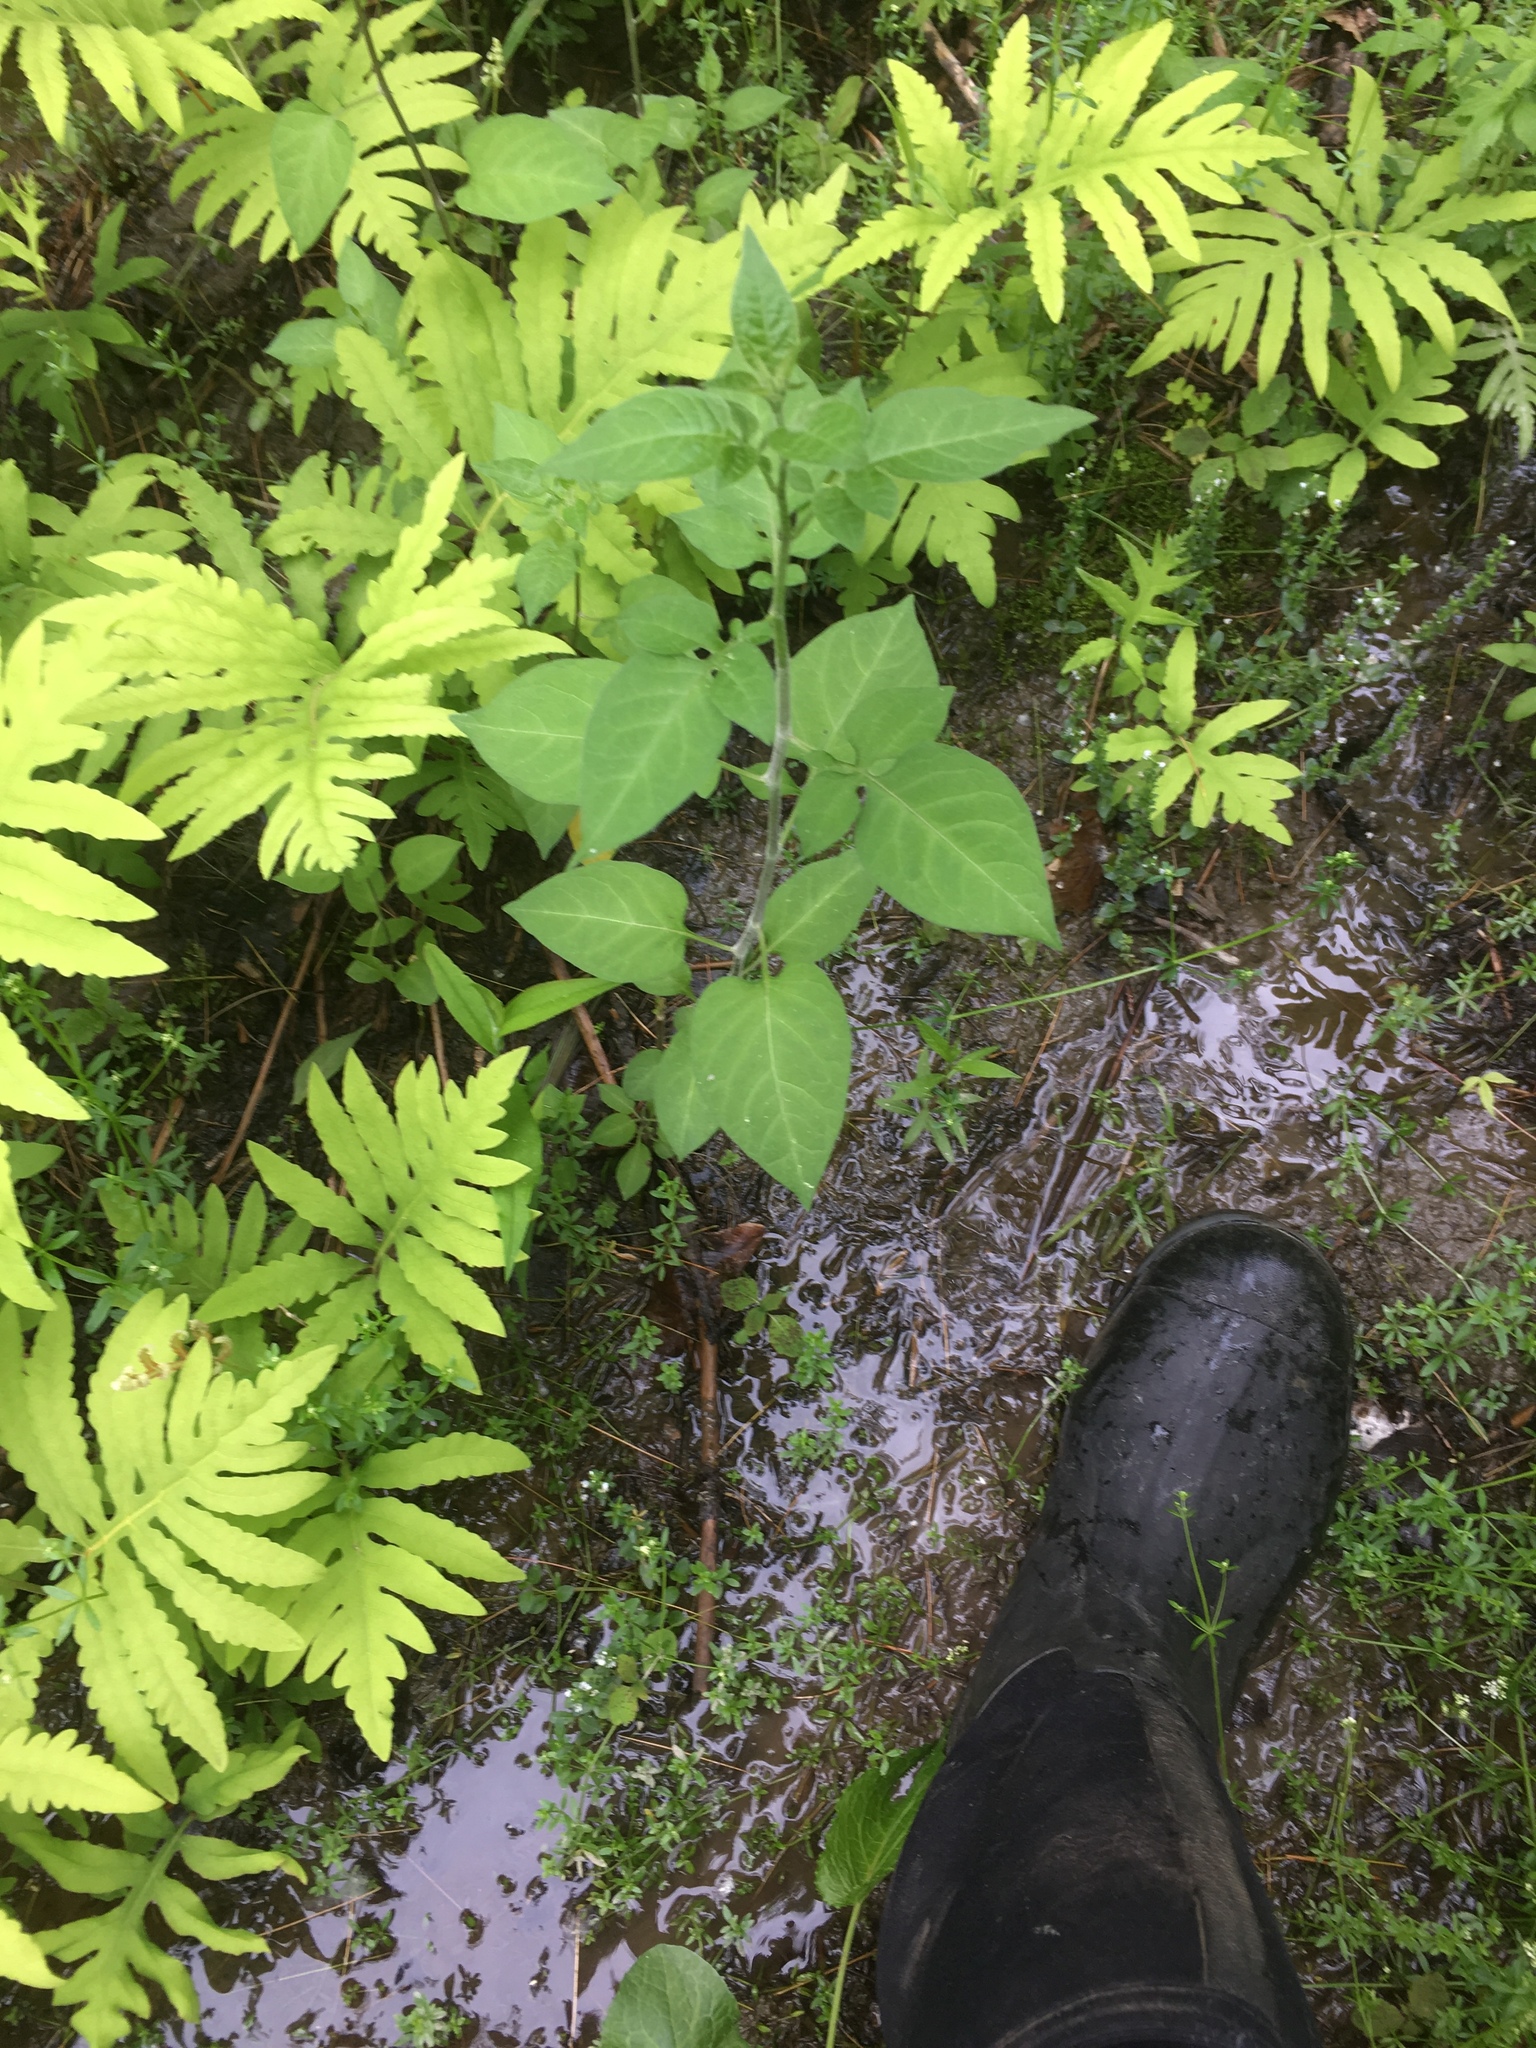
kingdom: Plantae
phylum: Tracheophyta
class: Magnoliopsida
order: Solanales
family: Solanaceae
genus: Solanum
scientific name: Solanum dulcamara
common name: Climbing nightshade
